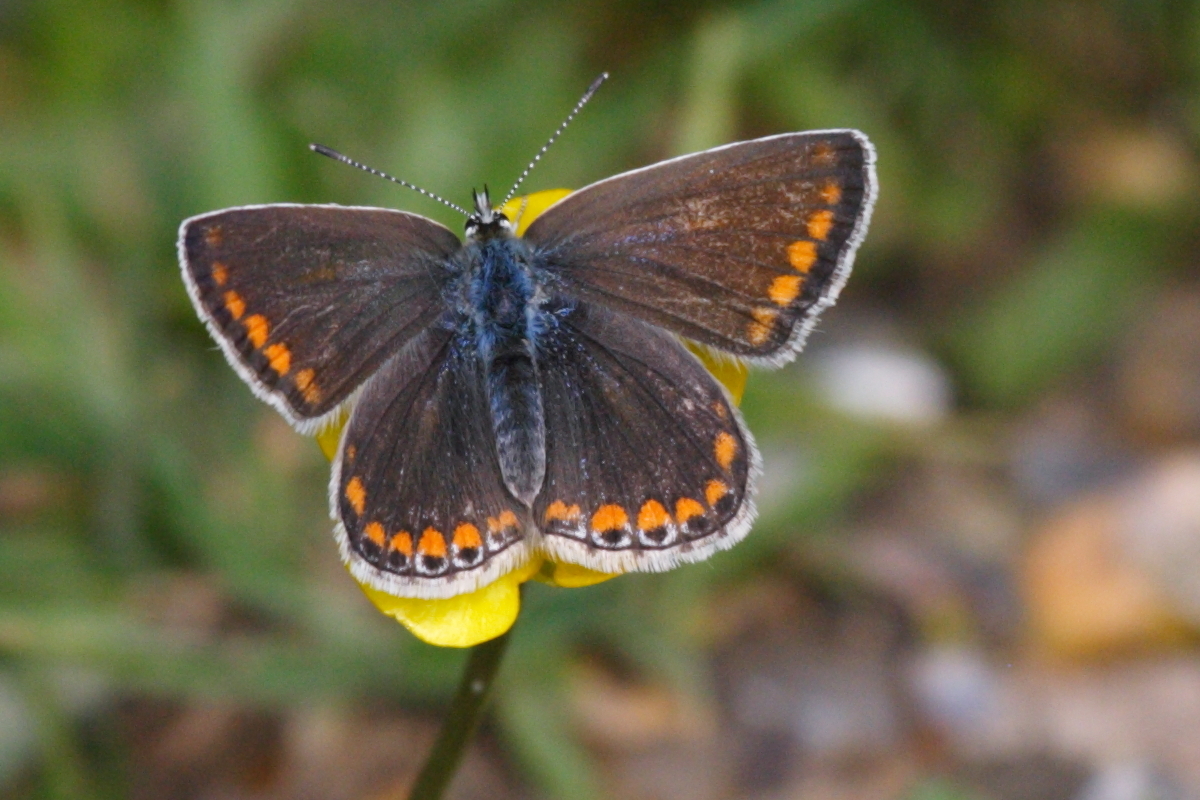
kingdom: Animalia
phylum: Arthropoda
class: Insecta
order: Lepidoptera
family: Lycaenidae
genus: Aricia
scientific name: Aricia agestis
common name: Brown argus
